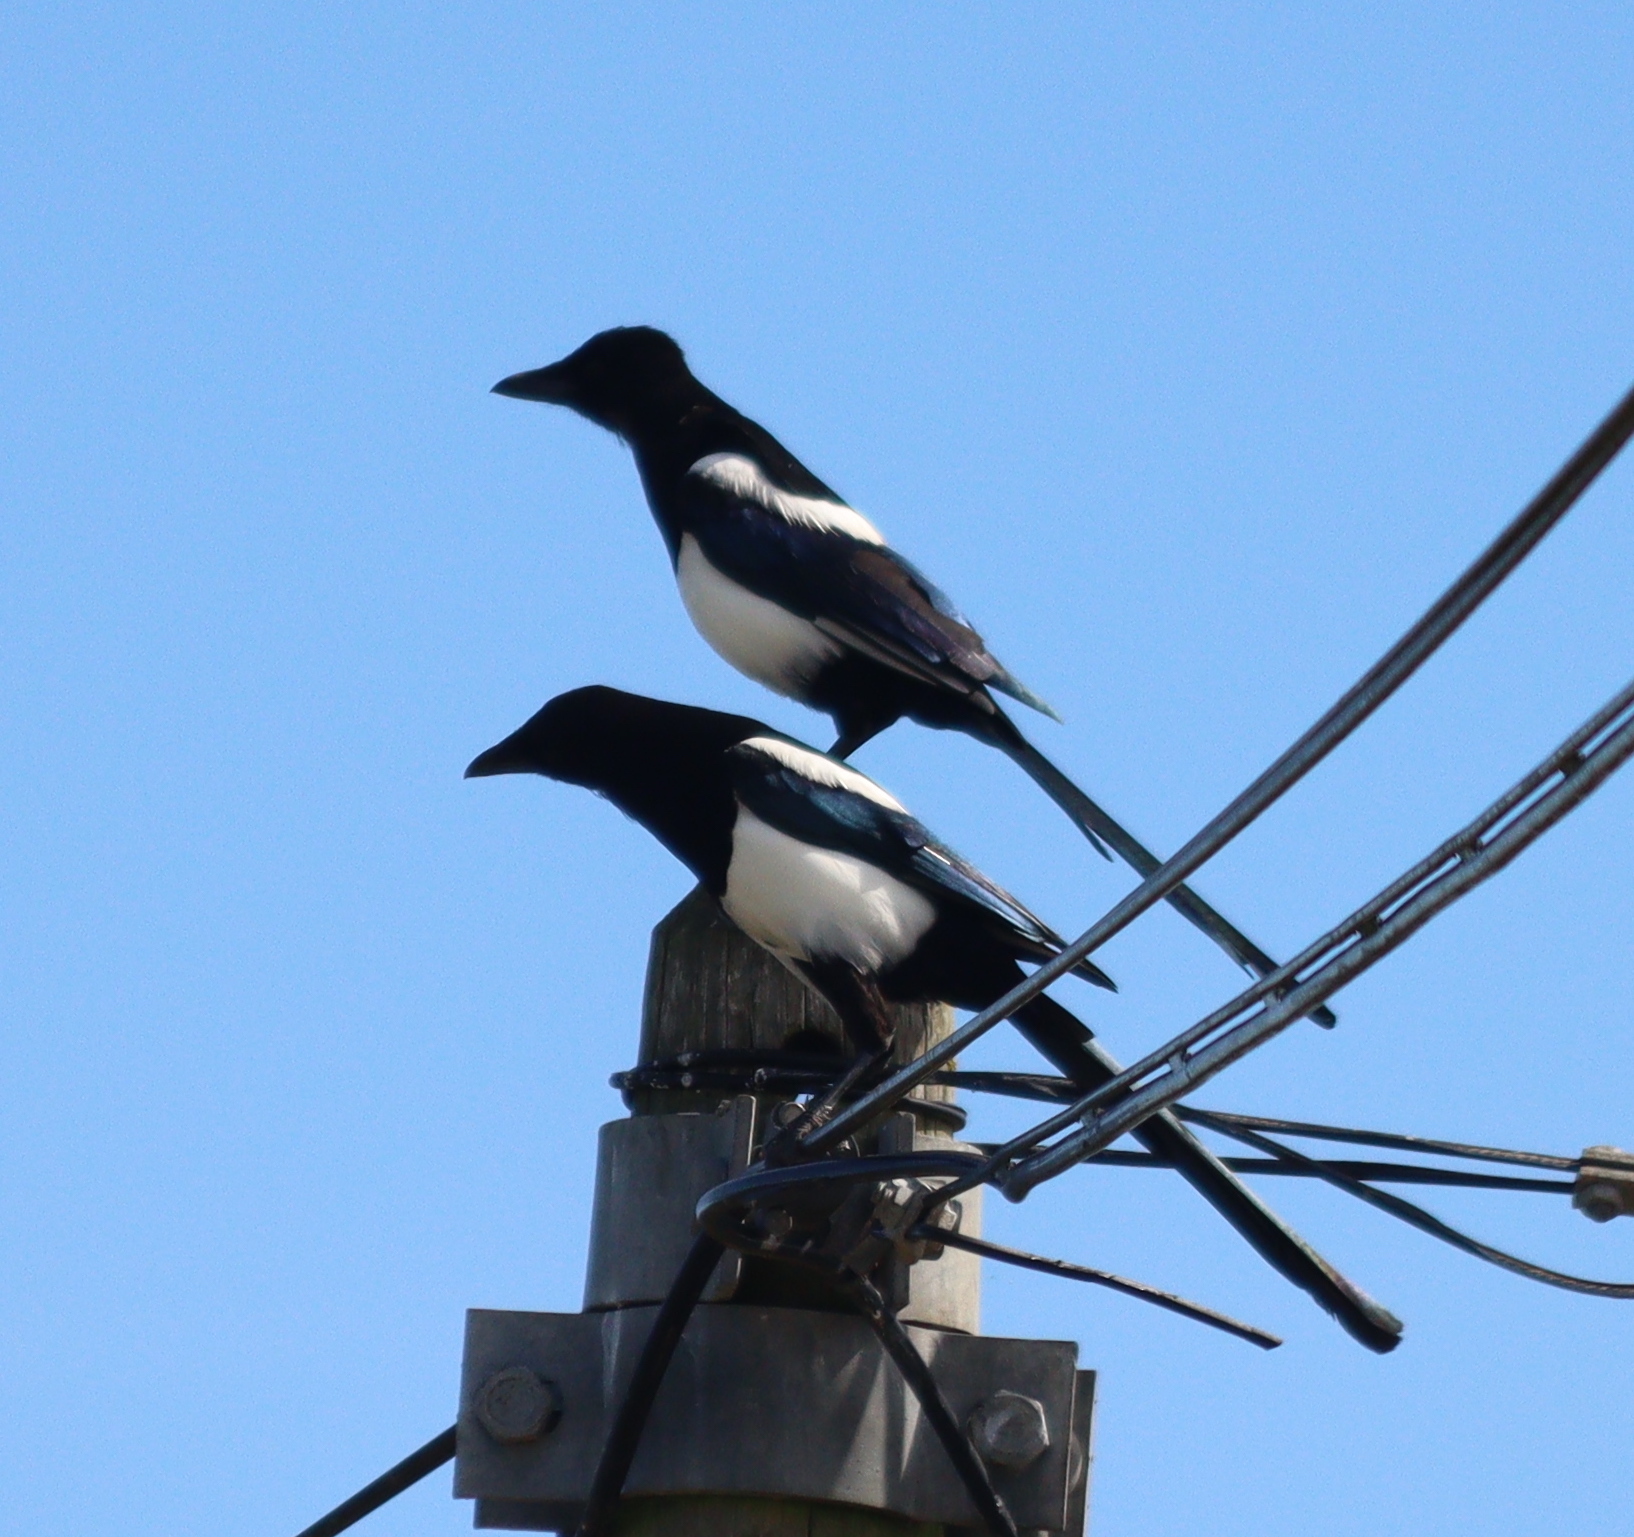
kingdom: Animalia
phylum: Chordata
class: Aves
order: Passeriformes
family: Corvidae
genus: Pica
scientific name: Pica pica
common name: Eurasian magpie
